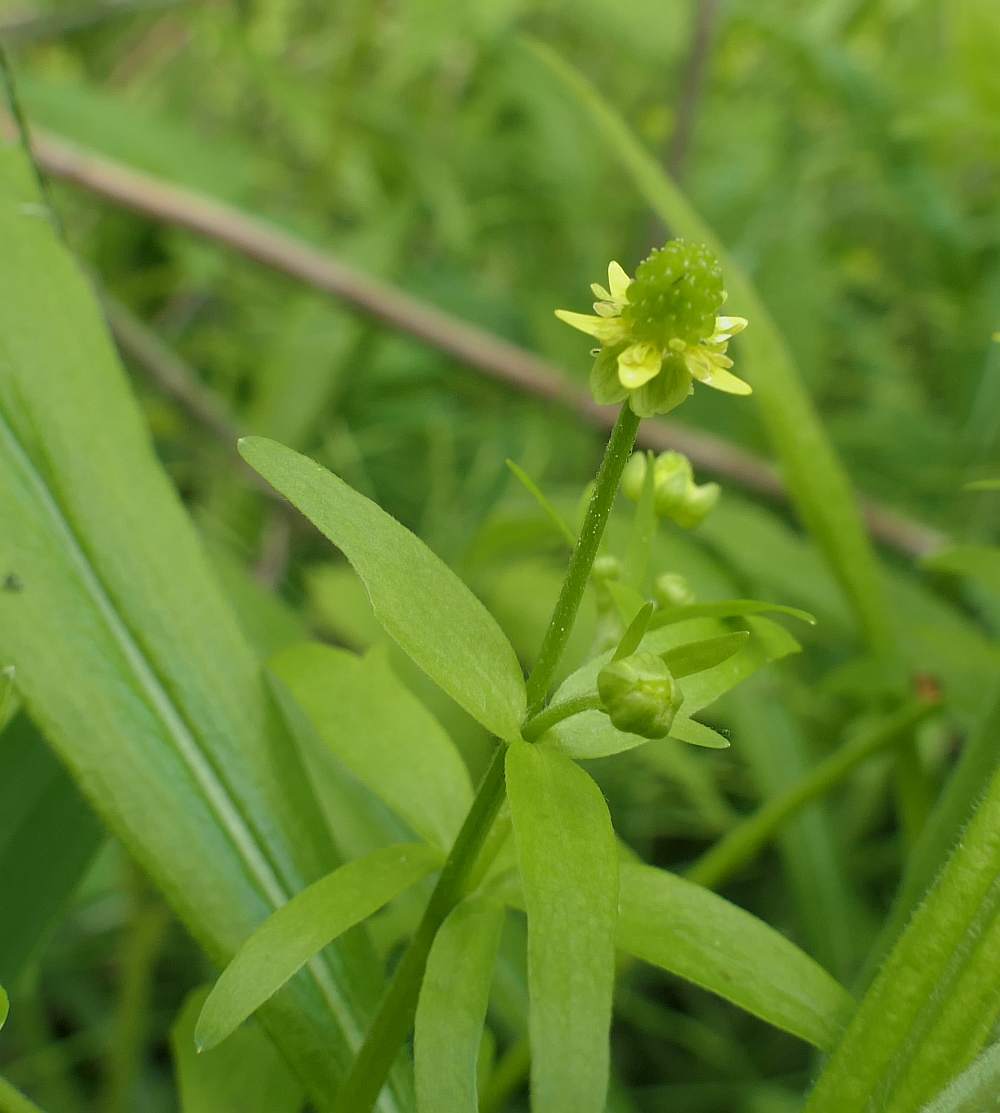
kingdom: Plantae
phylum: Tracheophyta
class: Magnoliopsida
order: Ranunculales
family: Ranunculaceae
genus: Ranunculus
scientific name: Ranunculus abortivus
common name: Early wood buttercup
